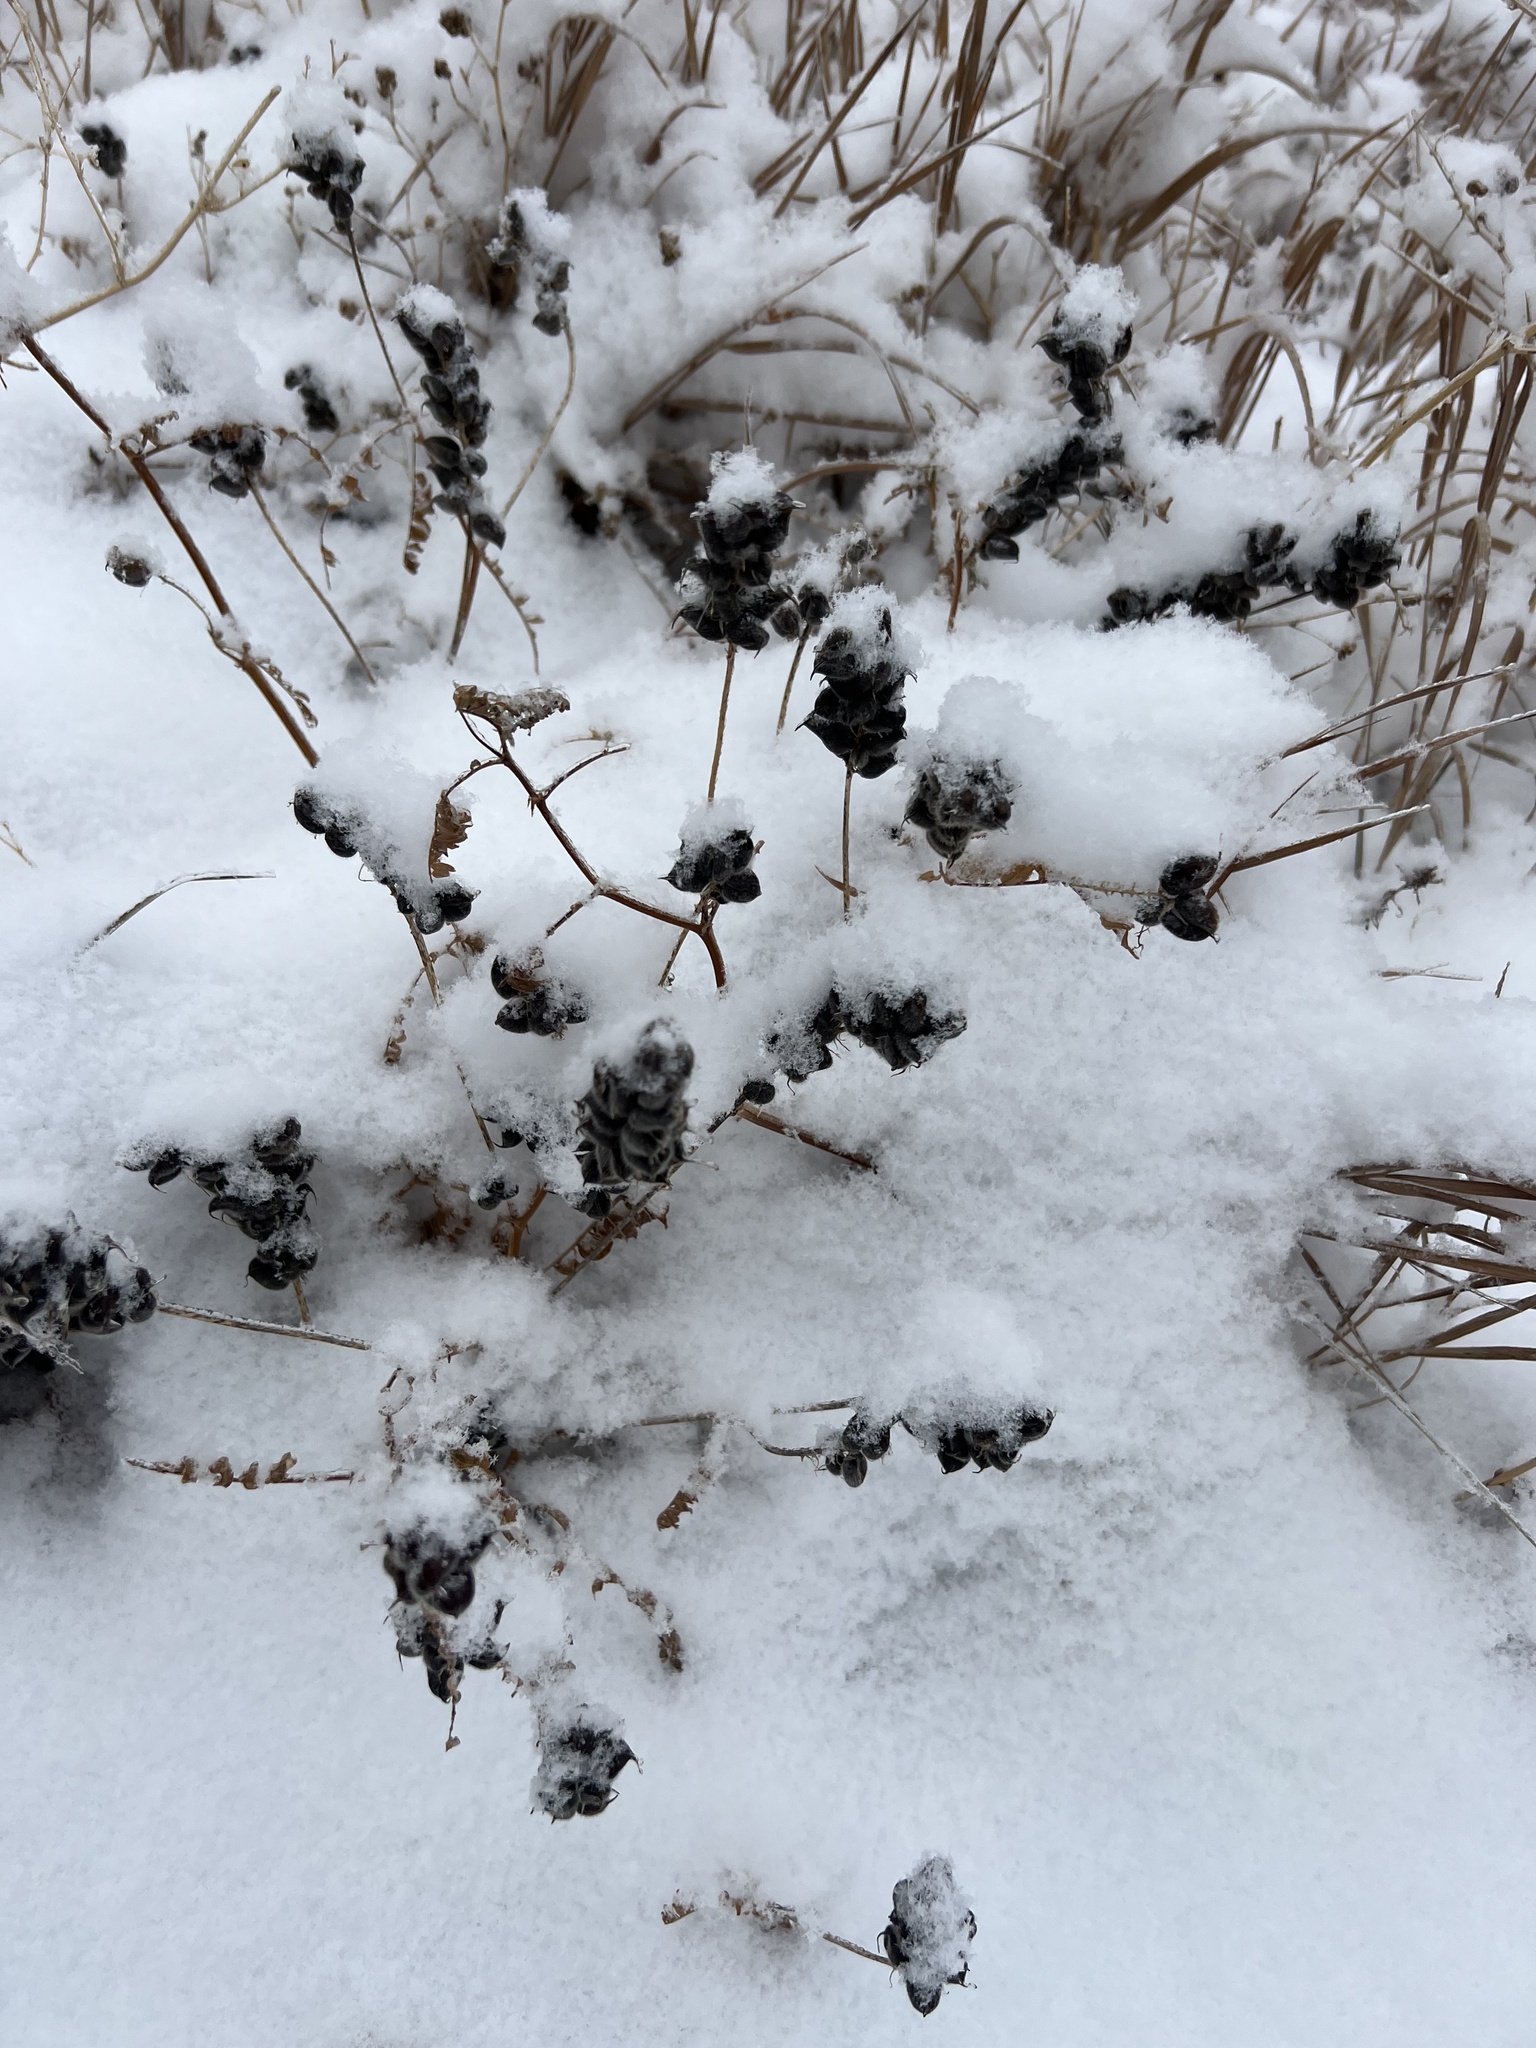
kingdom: Plantae
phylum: Tracheophyta
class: Magnoliopsida
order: Fabales
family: Fabaceae
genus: Astragalus
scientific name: Astragalus cicer
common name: Chick-pea milk-vetch
